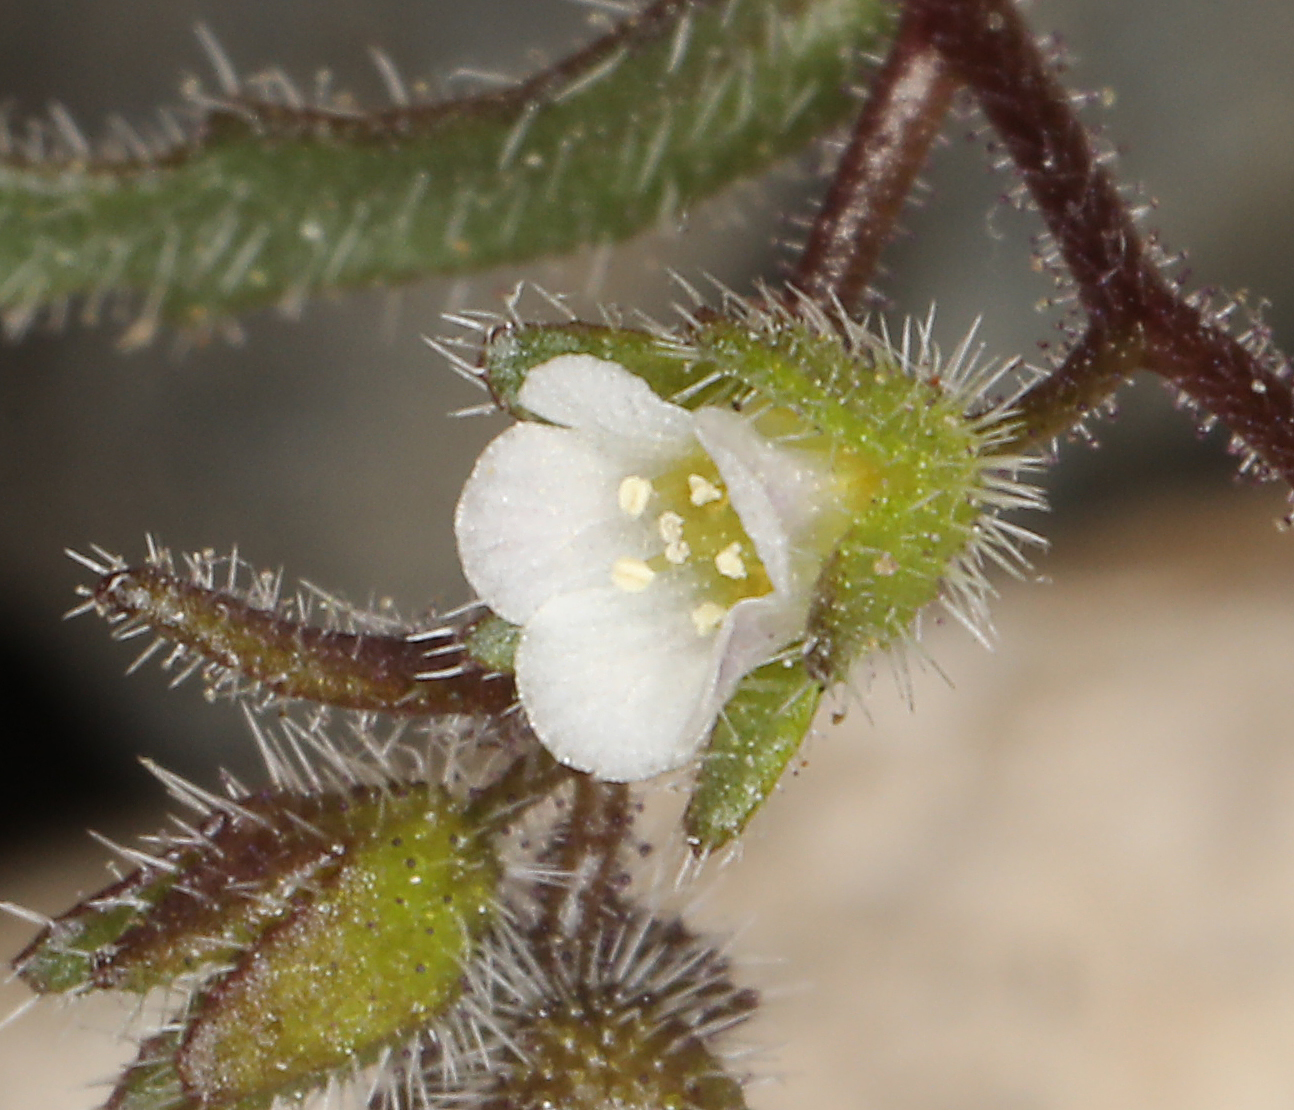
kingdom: Plantae
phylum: Tracheophyta
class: Magnoliopsida
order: Boraginales
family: Hydrophyllaceae
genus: Eucrypta
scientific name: Eucrypta micrantha
